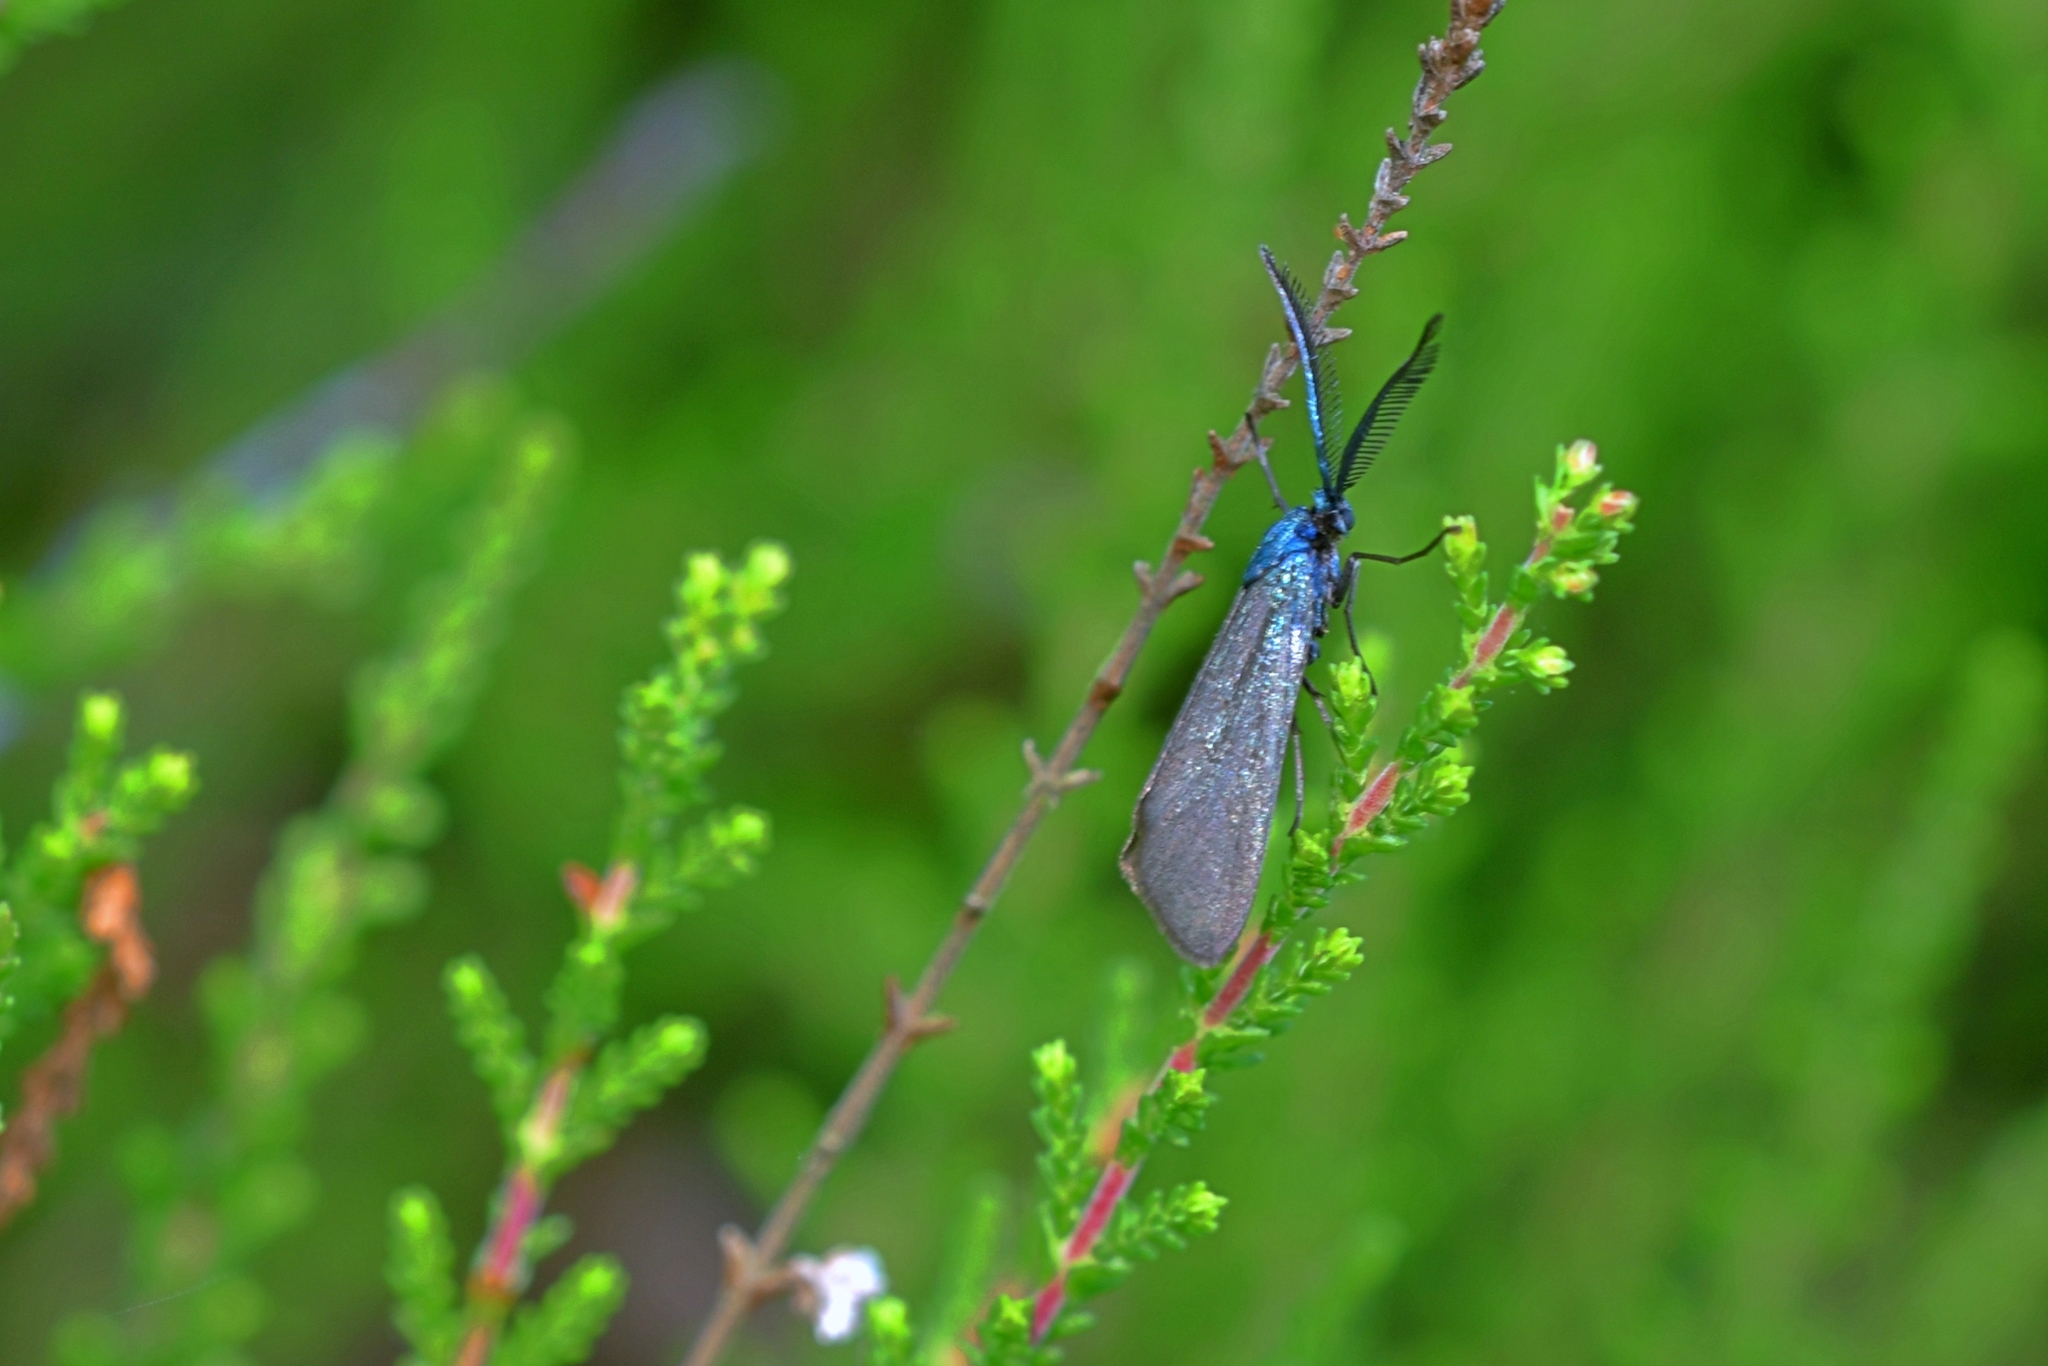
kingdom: Animalia
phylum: Arthropoda
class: Insecta
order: Lepidoptera
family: Zygaenidae
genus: Rhagades
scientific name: Rhagades pruni
